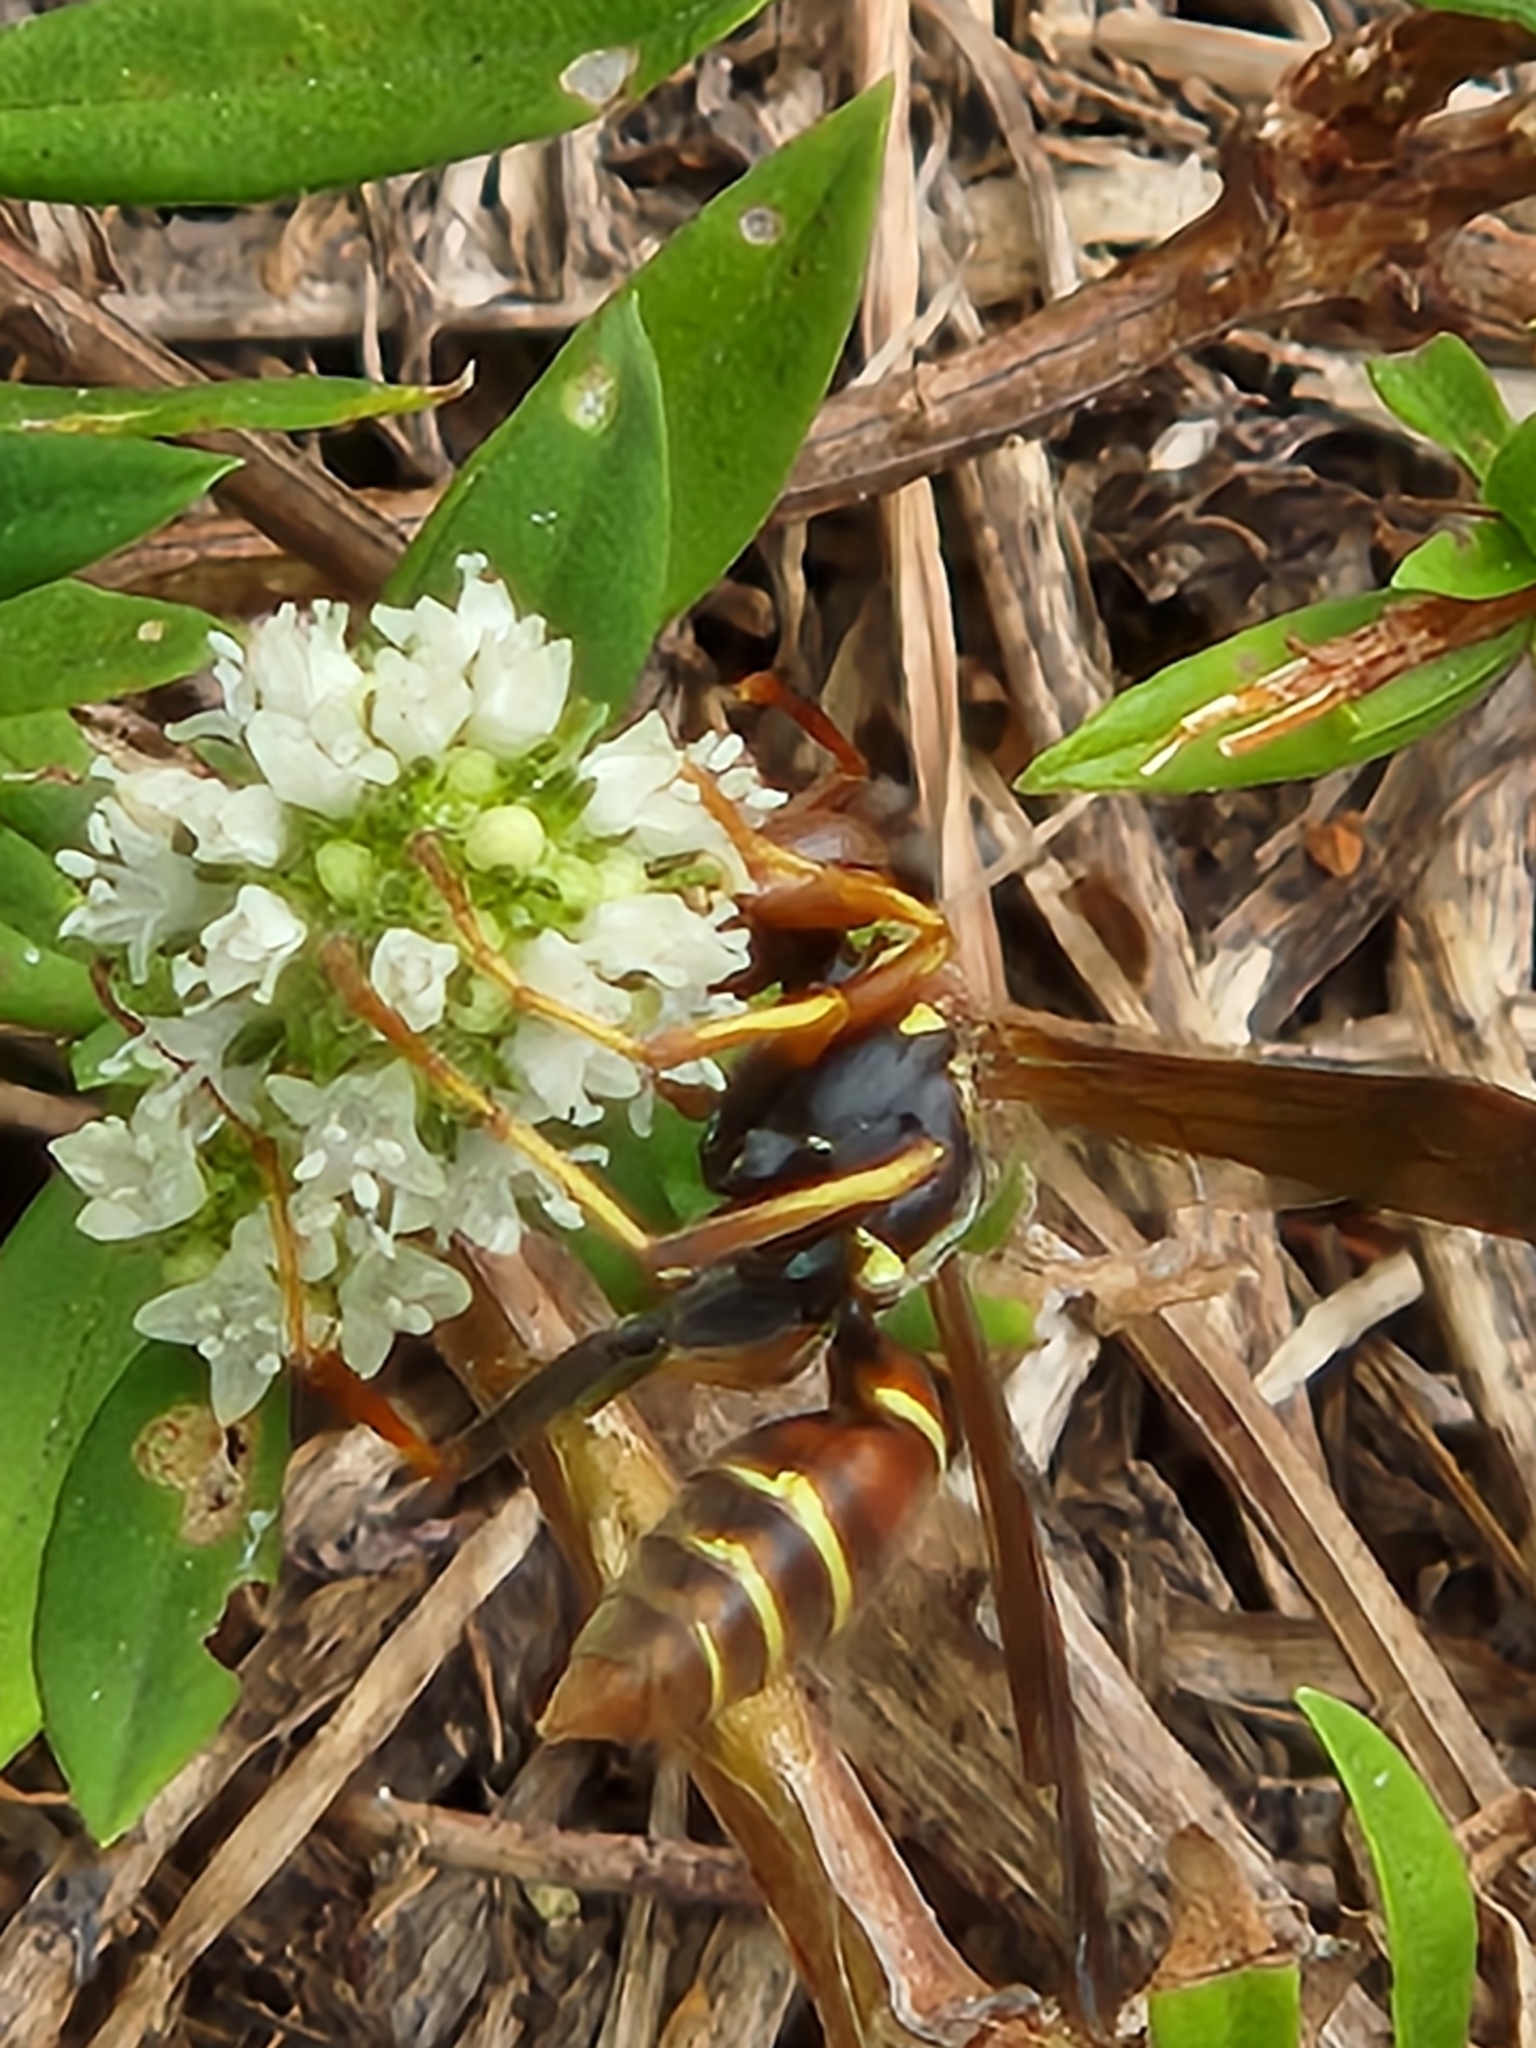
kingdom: Animalia
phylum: Arthropoda
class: Insecta
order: Hymenoptera
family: Eumenidae
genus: Polistes
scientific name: Polistes dorsalis
